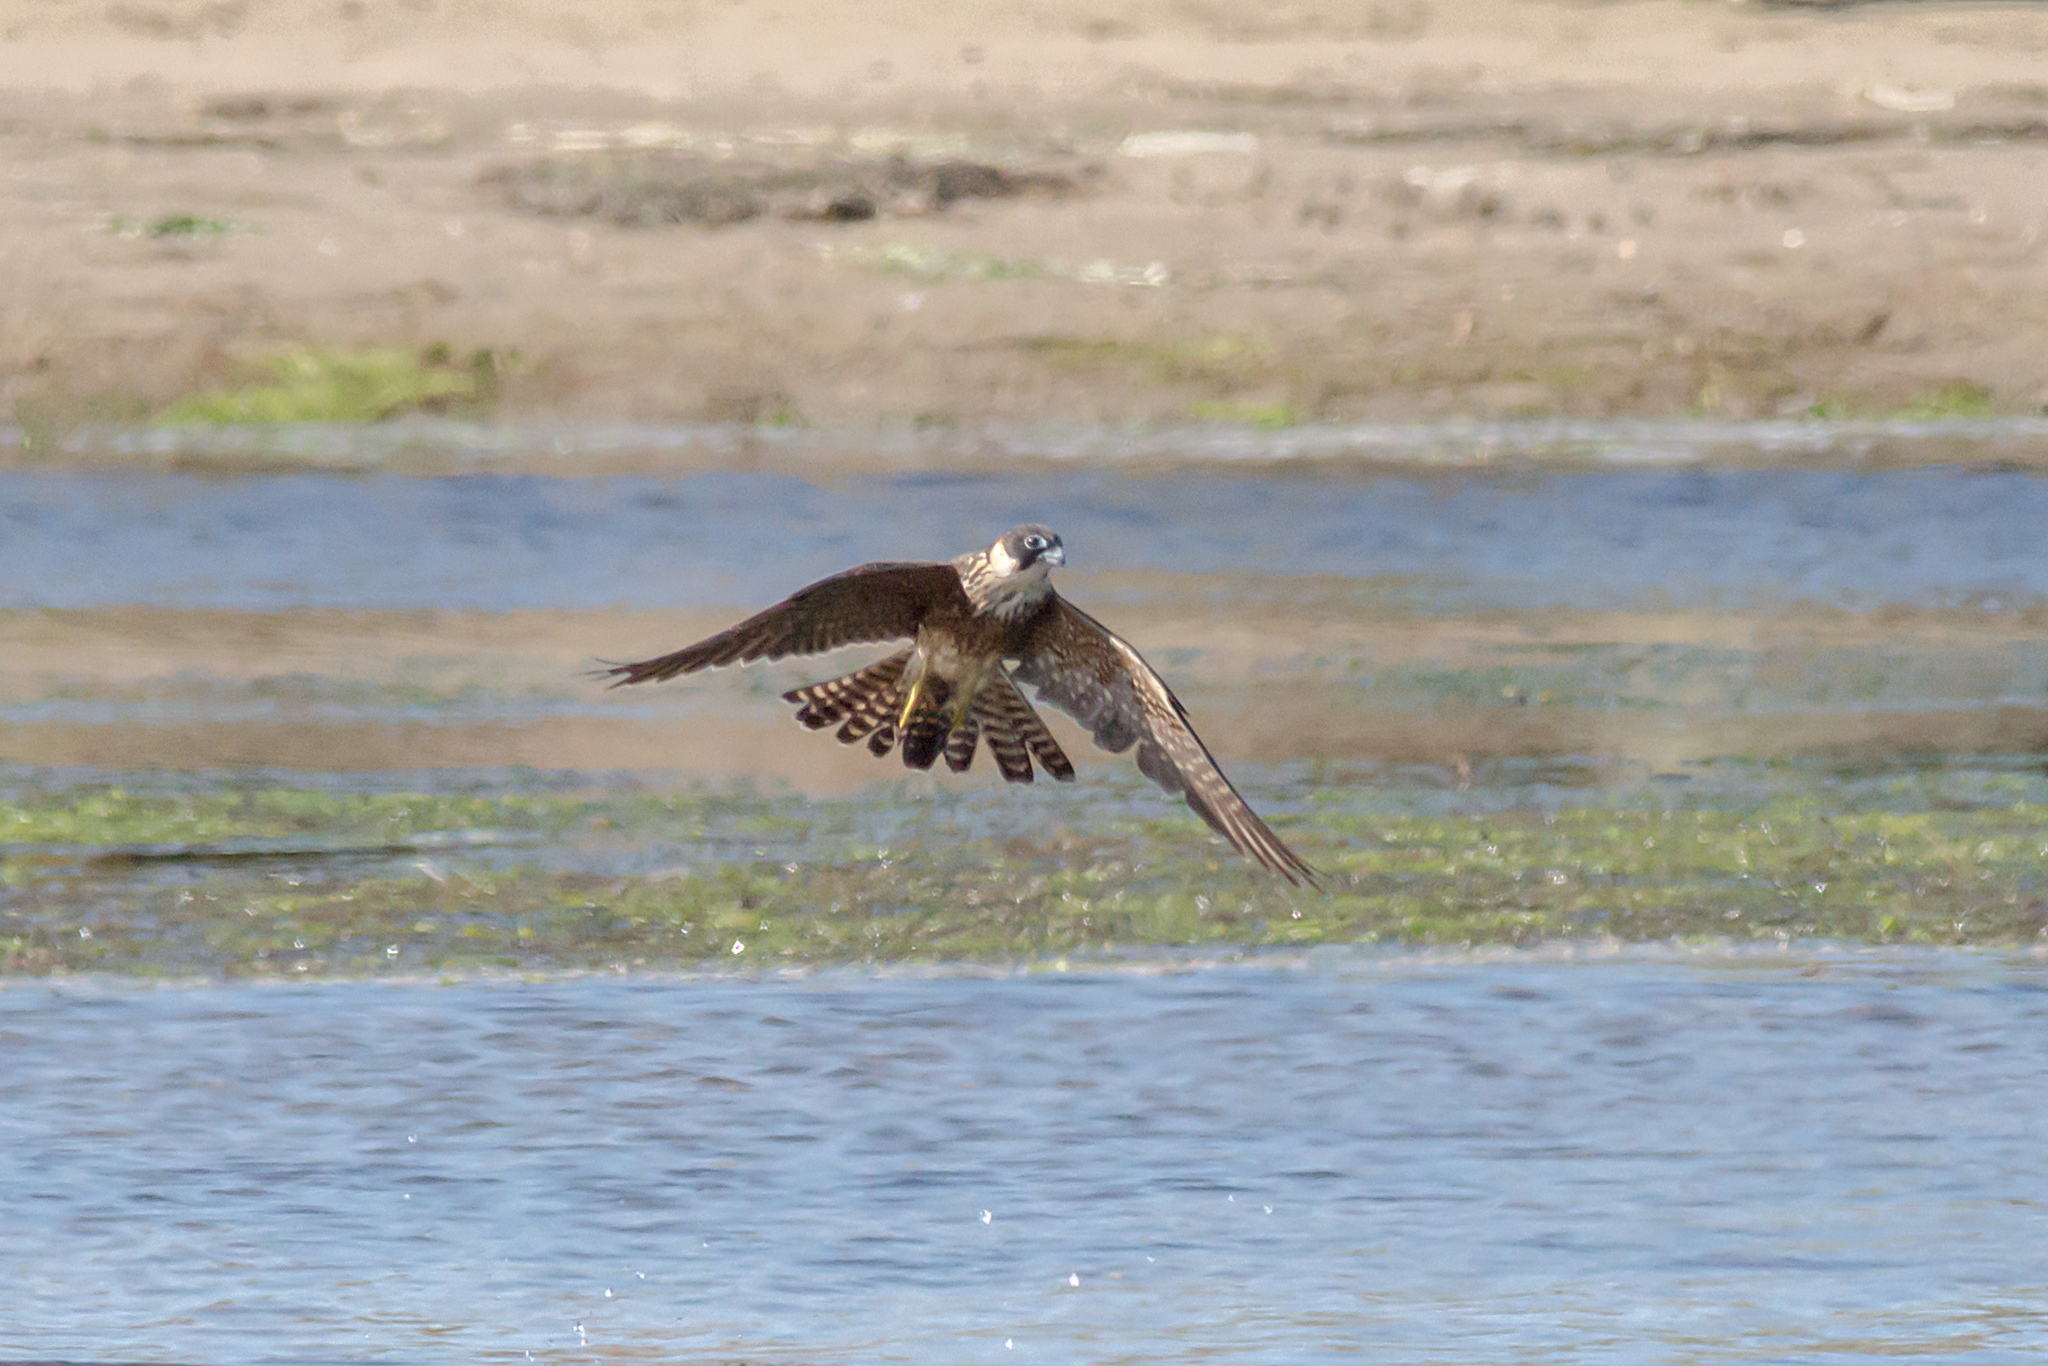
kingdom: Animalia
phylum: Chordata
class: Aves
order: Falconiformes
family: Falconidae
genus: Falco
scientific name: Falco longipennis
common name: Australian hobby
